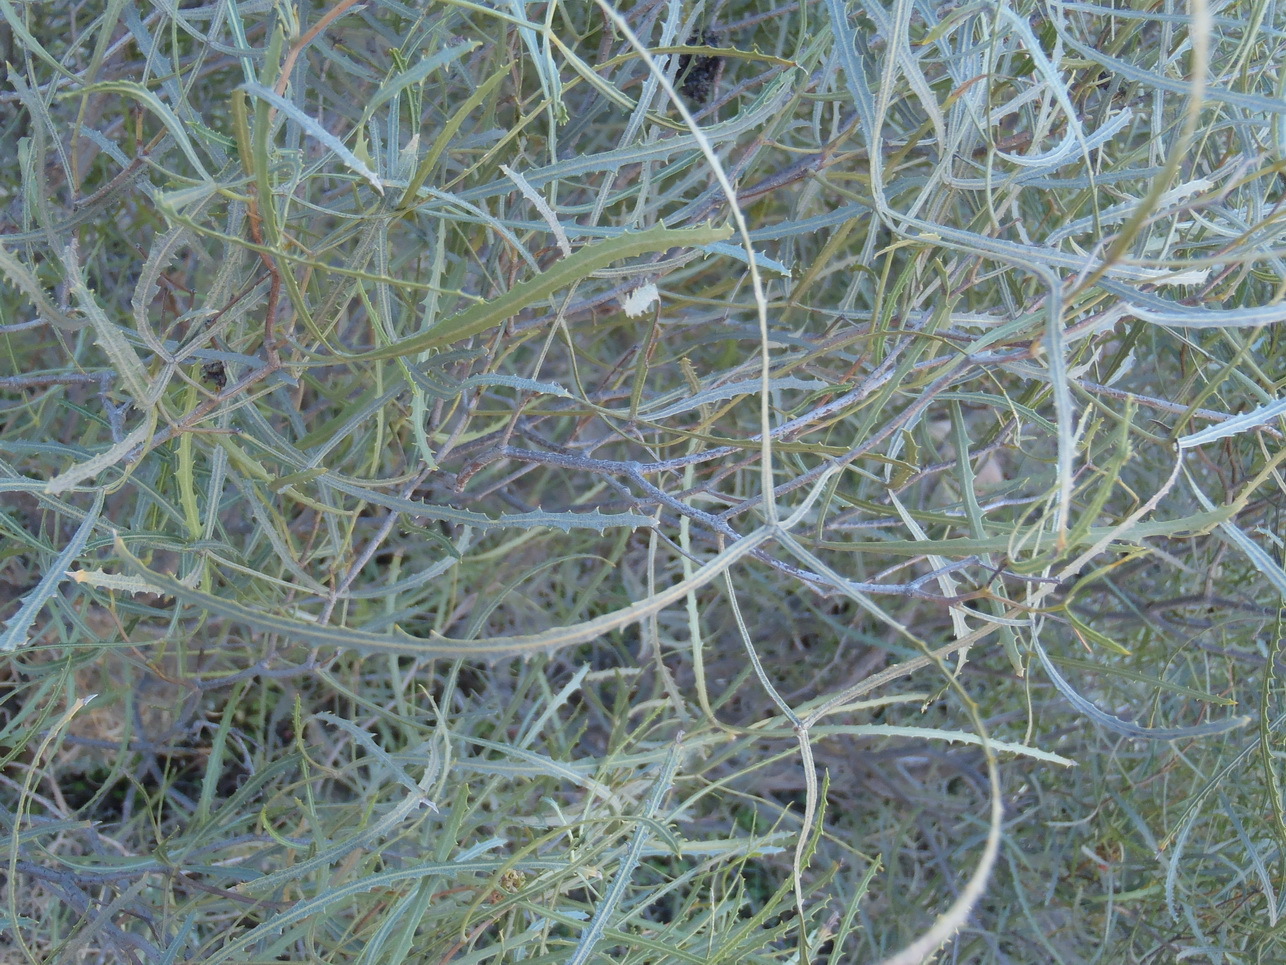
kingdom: Plantae
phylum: Tracheophyta
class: Magnoliopsida
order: Sapindales
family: Anacardiaceae
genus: Searsia
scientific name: Searsia erosa
